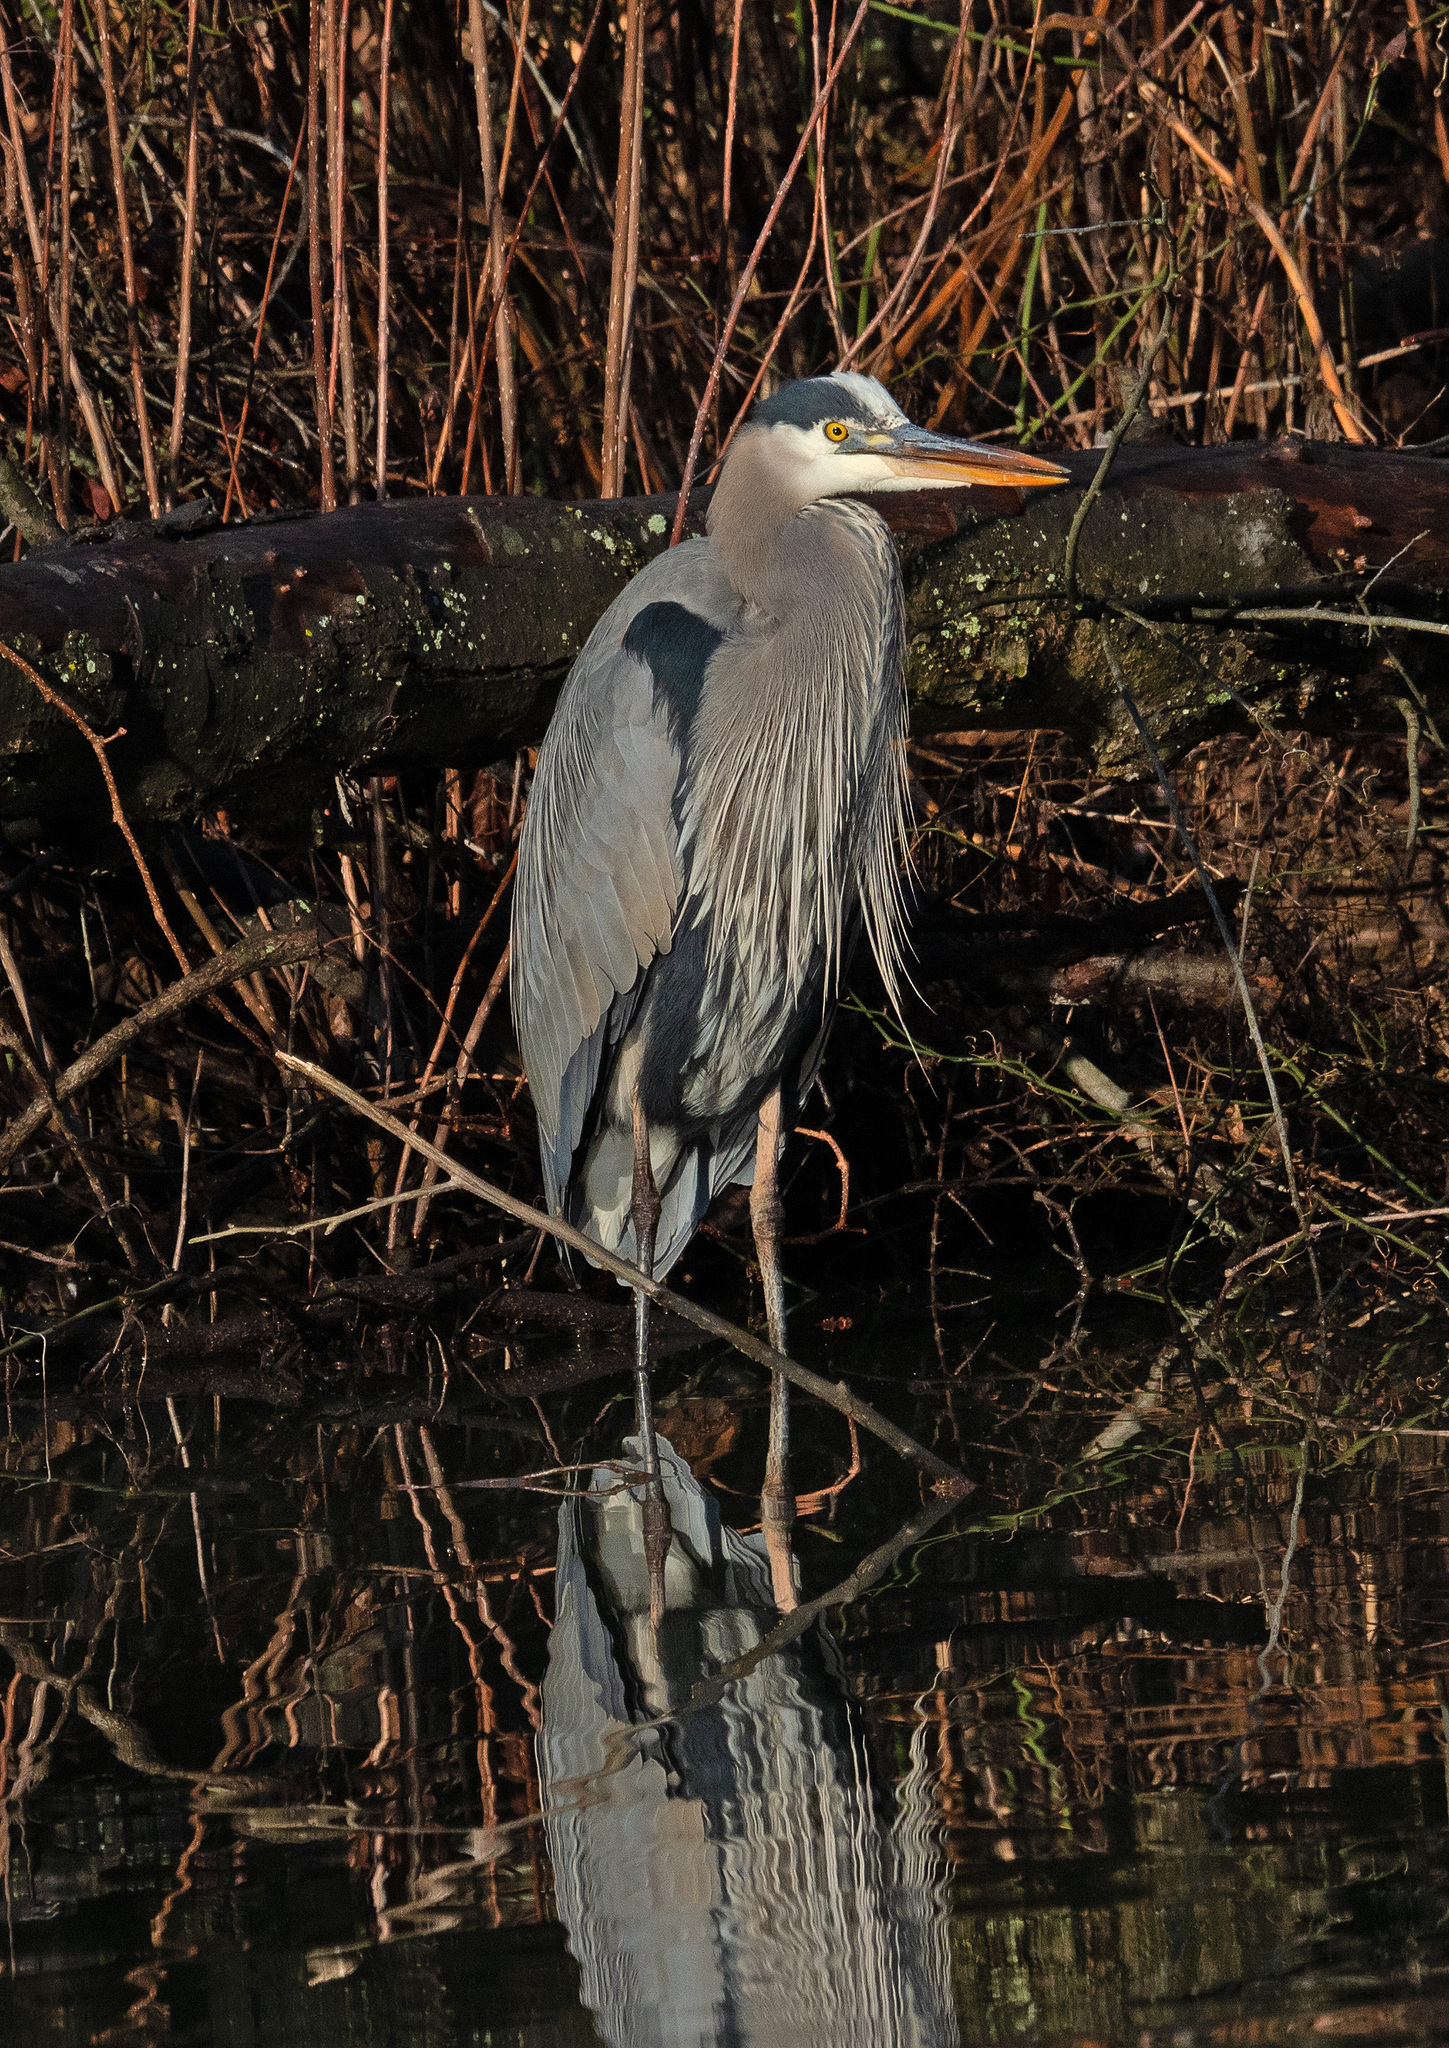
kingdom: Animalia
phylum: Chordata
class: Aves
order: Pelecaniformes
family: Ardeidae
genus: Ardea
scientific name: Ardea herodias
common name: Great blue heron
